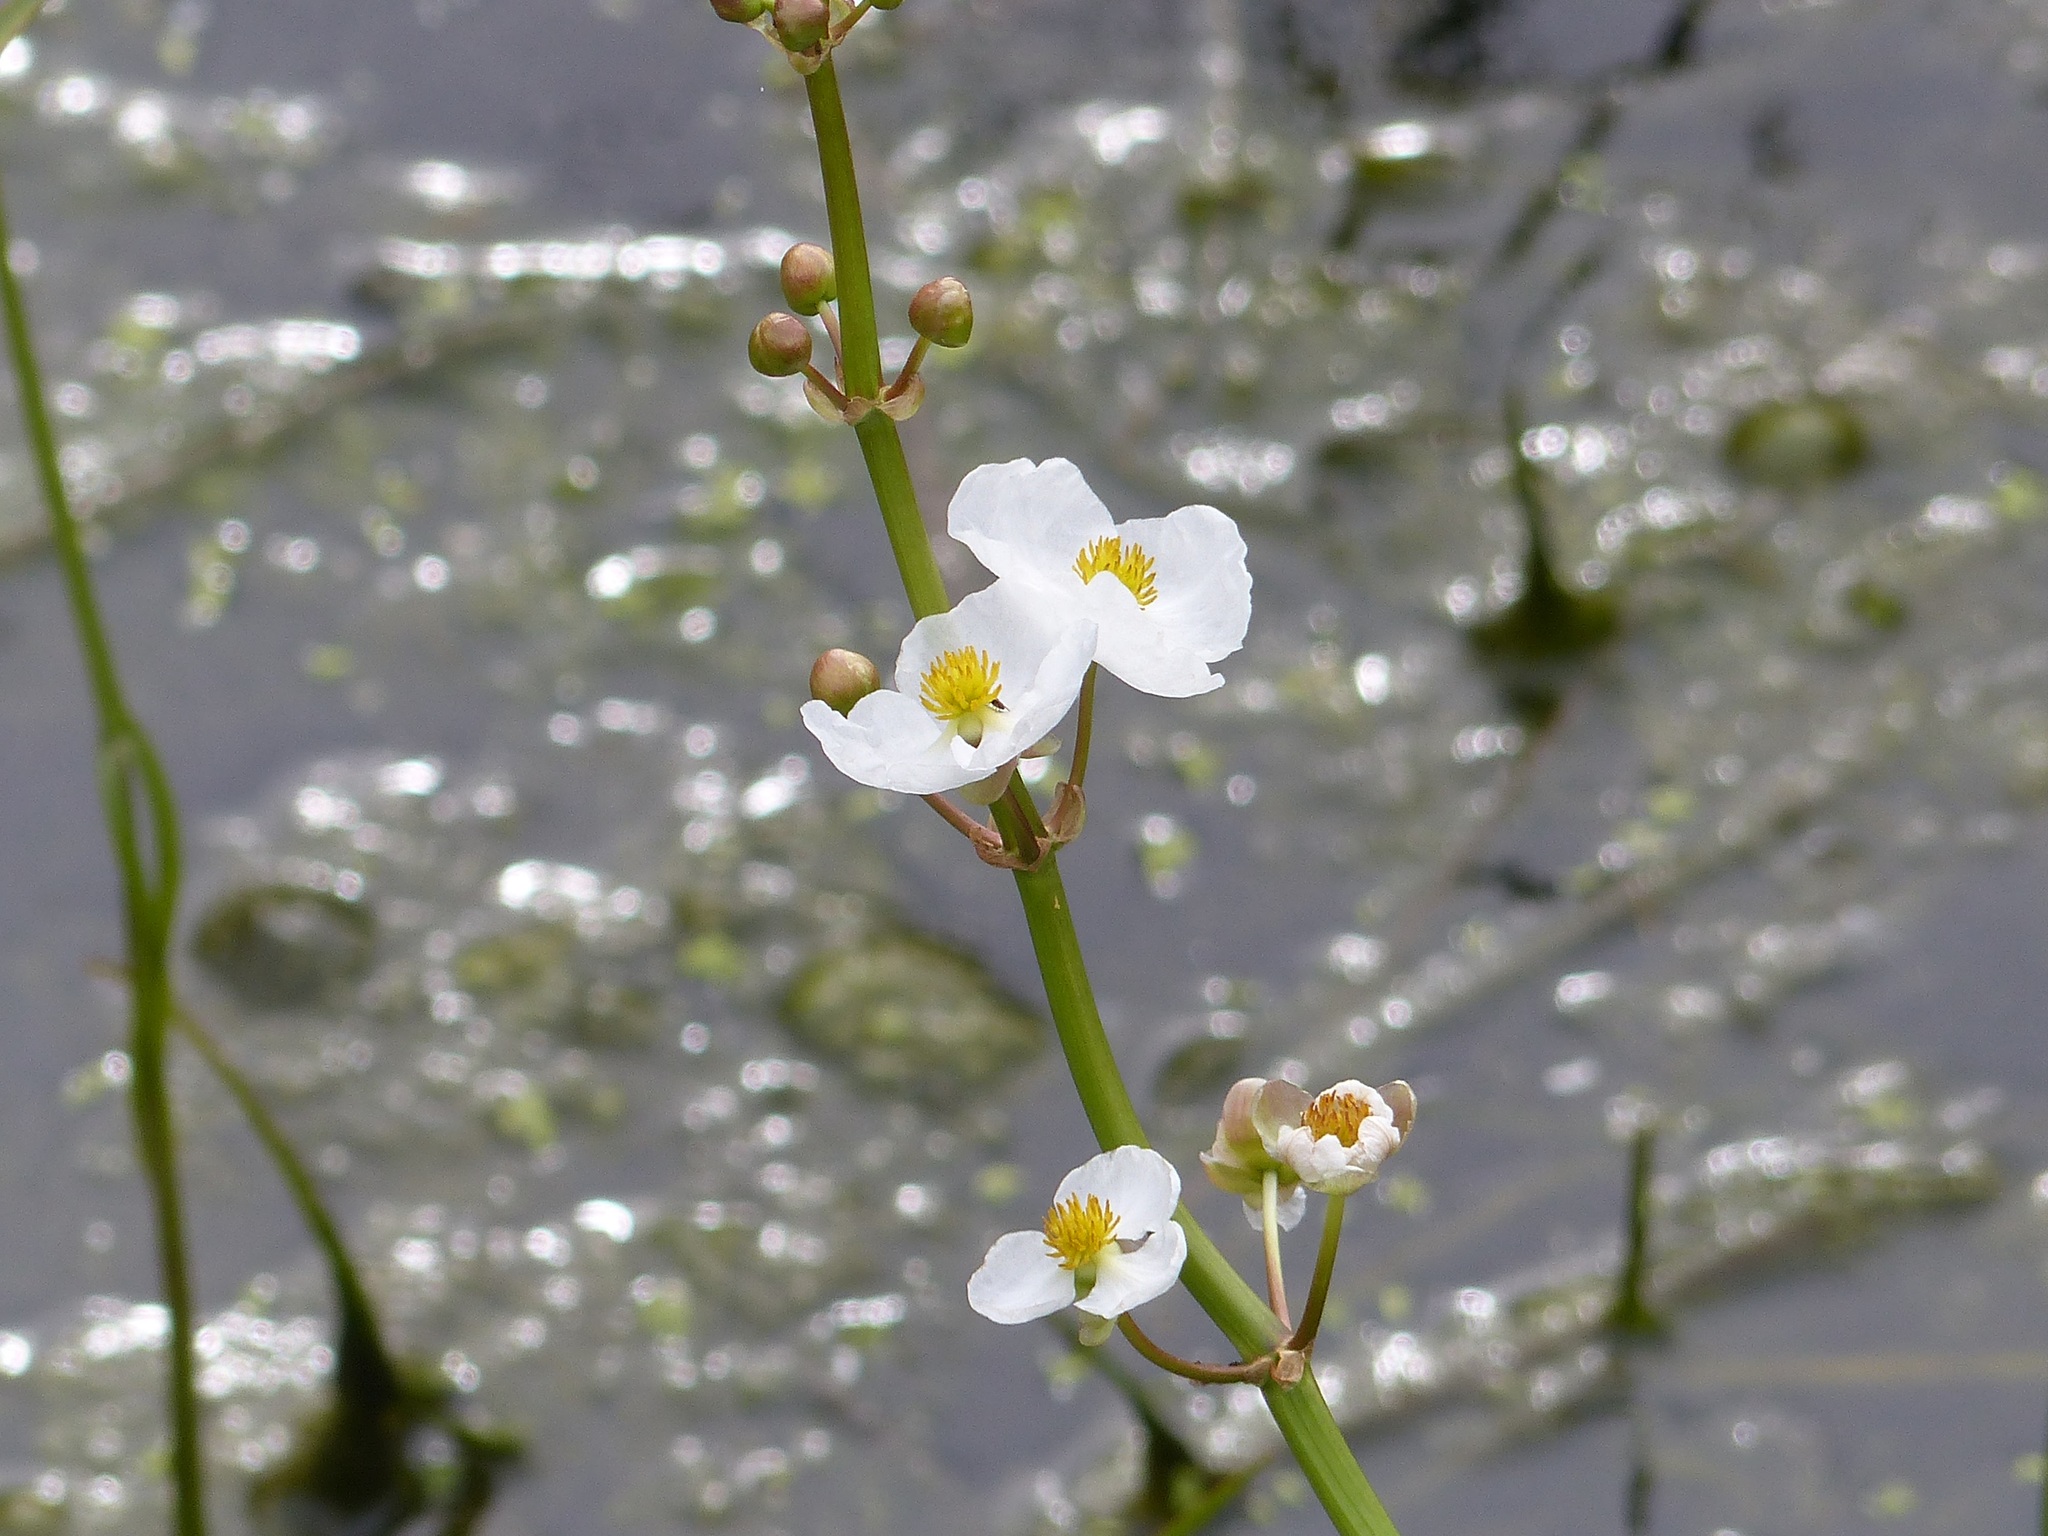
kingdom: Plantae
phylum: Tracheophyta
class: Liliopsida
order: Alismatales
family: Alismataceae
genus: Sagittaria
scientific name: Sagittaria latifolia
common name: Duck-potato
